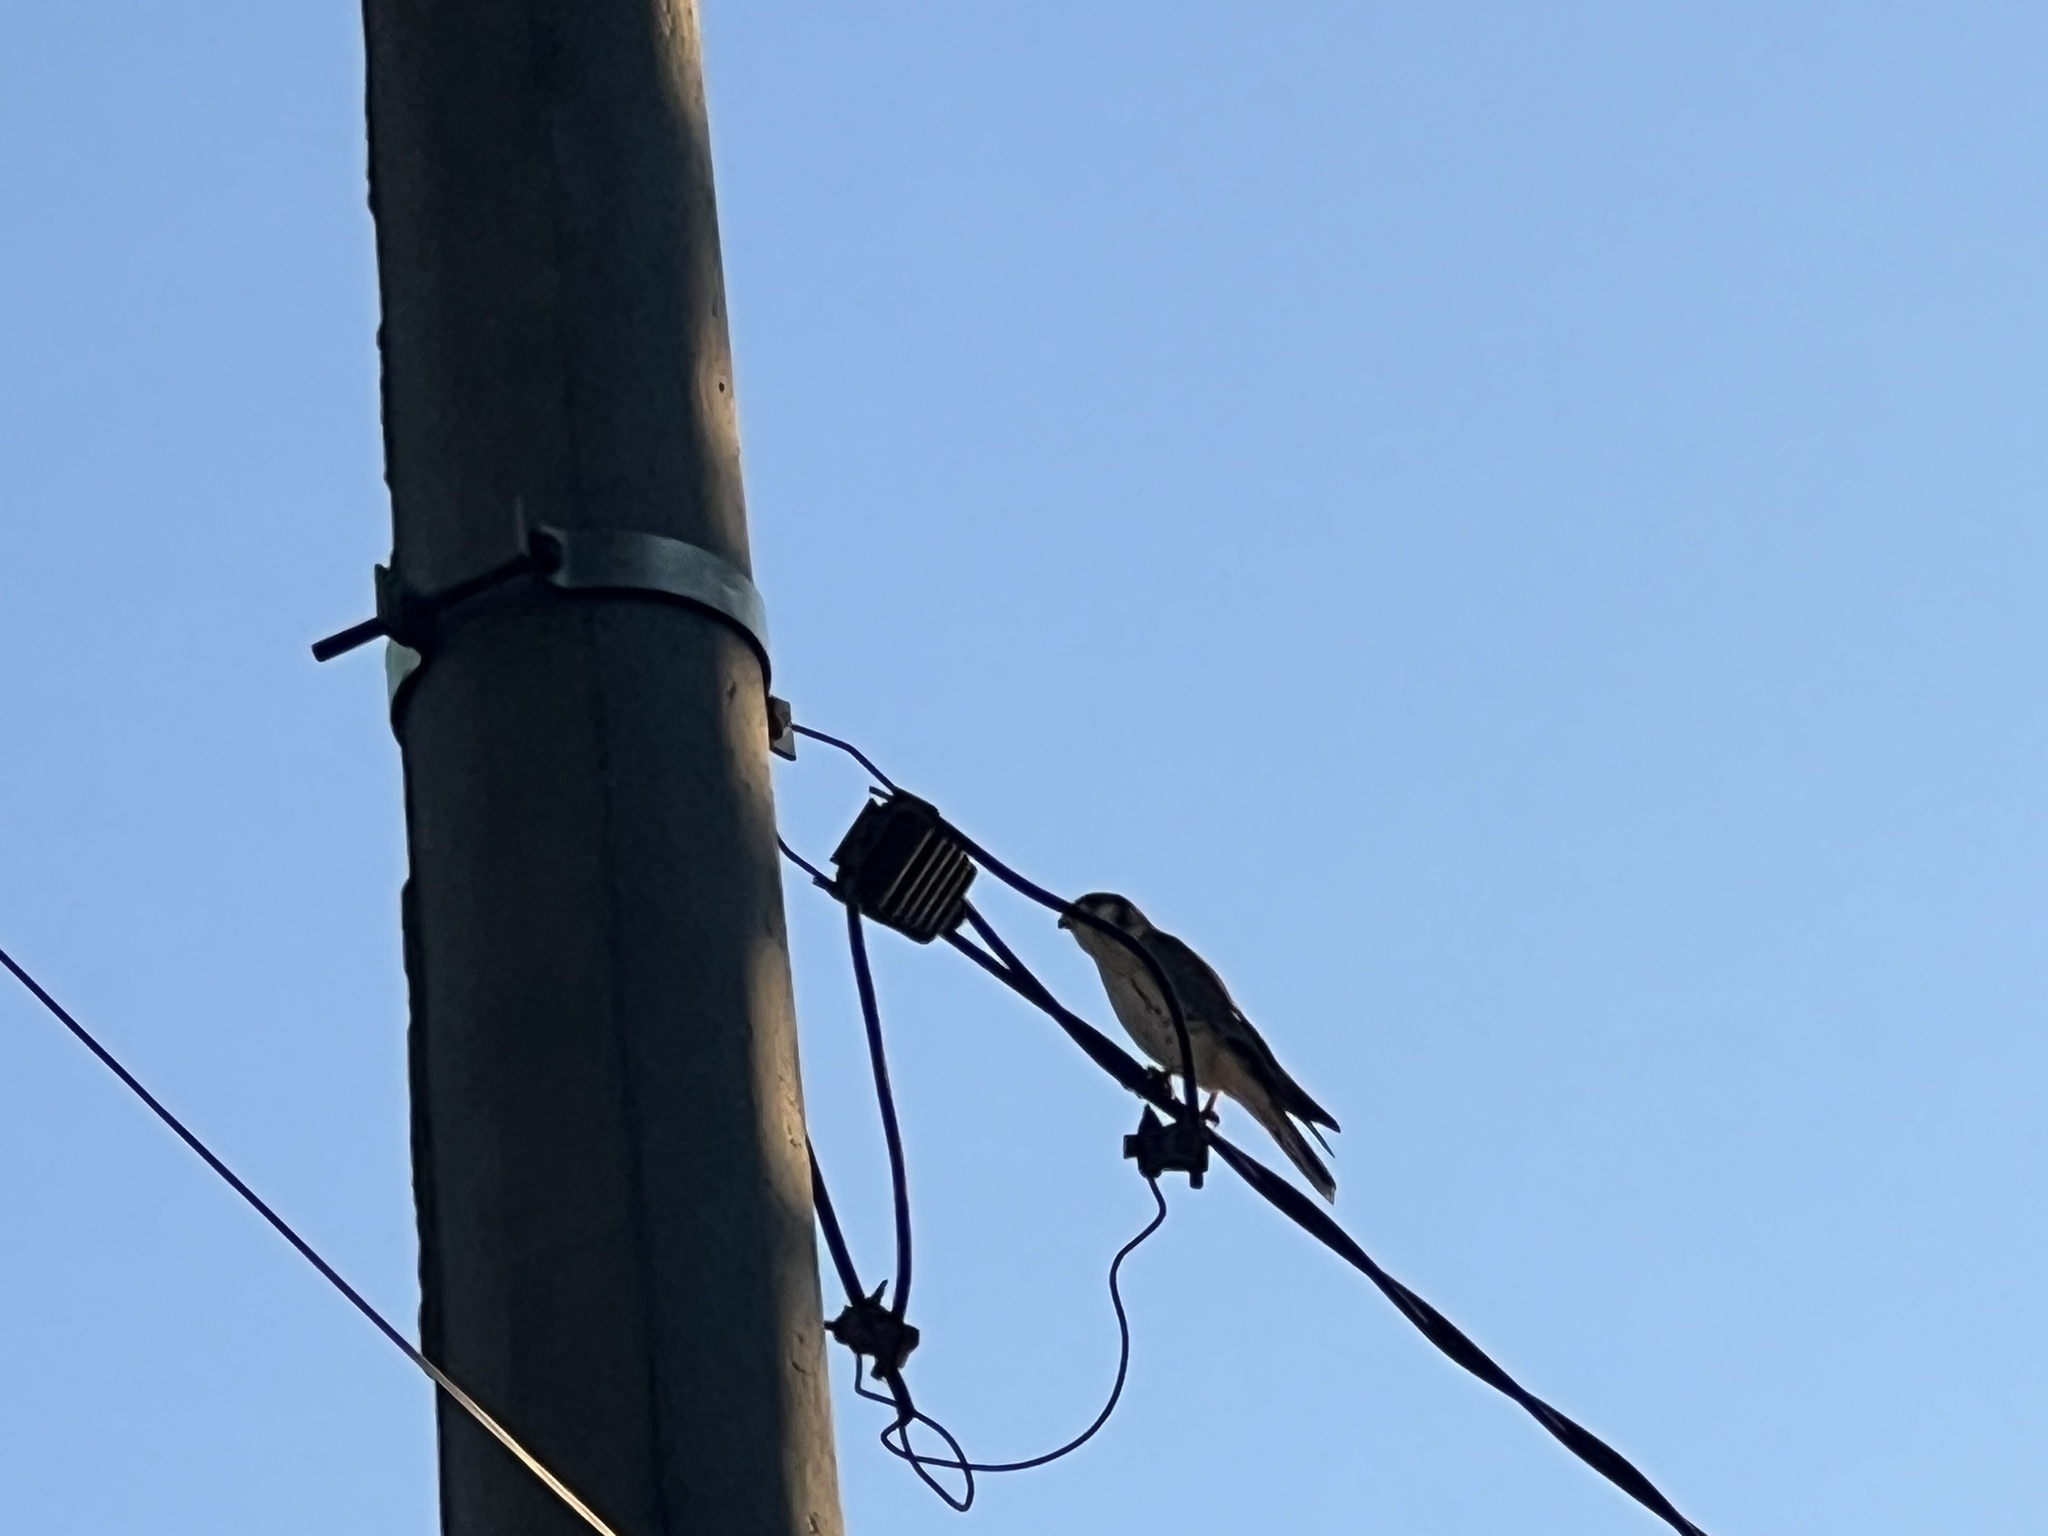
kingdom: Animalia
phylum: Chordata
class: Aves
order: Falconiformes
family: Falconidae
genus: Falco
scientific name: Falco sparverius
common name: American kestrel
